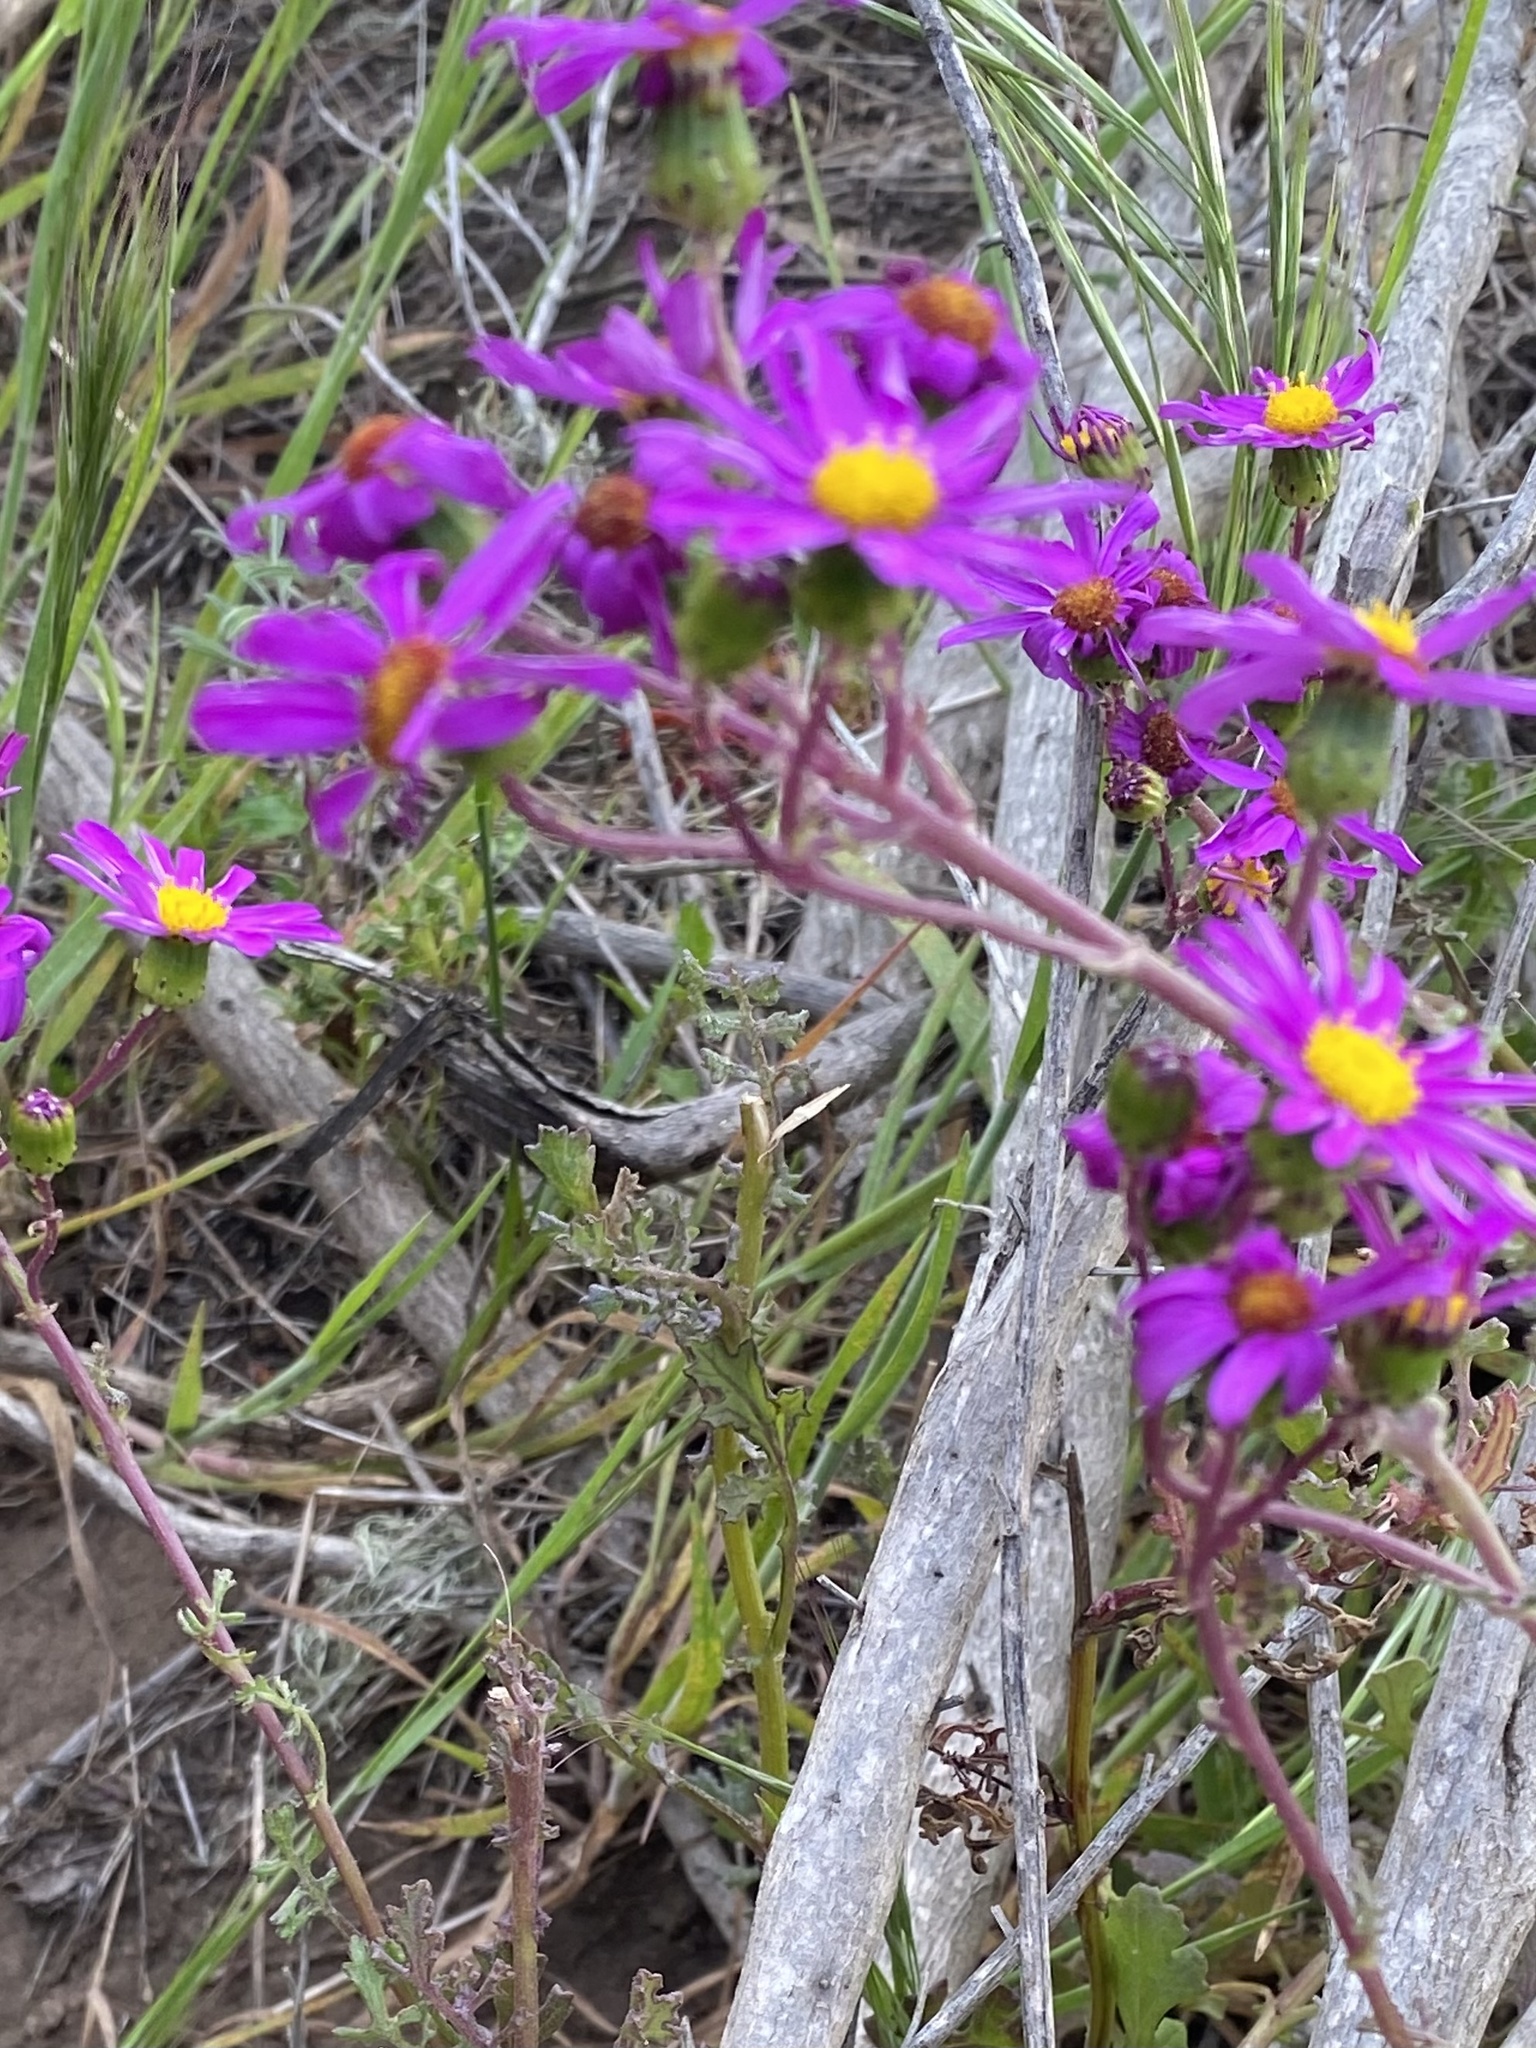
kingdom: Plantae
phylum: Tracheophyta
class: Magnoliopsida
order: Asterales
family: Asteraceae
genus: Senecio
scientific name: Senecio elegans
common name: Purple groundsel
